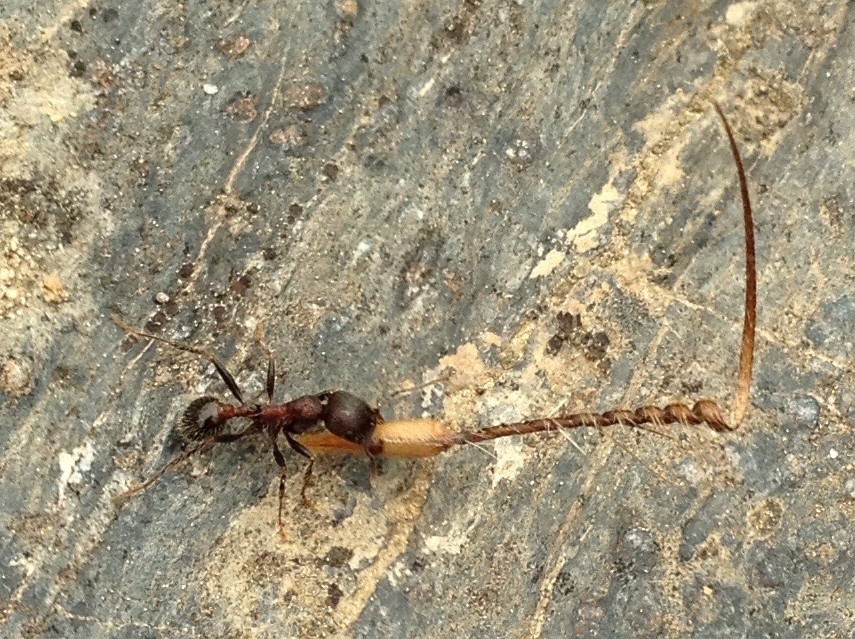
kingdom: Animalia
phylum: Arthropoda
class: Insecta
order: Hymenoptera
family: Formicidae
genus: Veromessor
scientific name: Veromessor andrei
